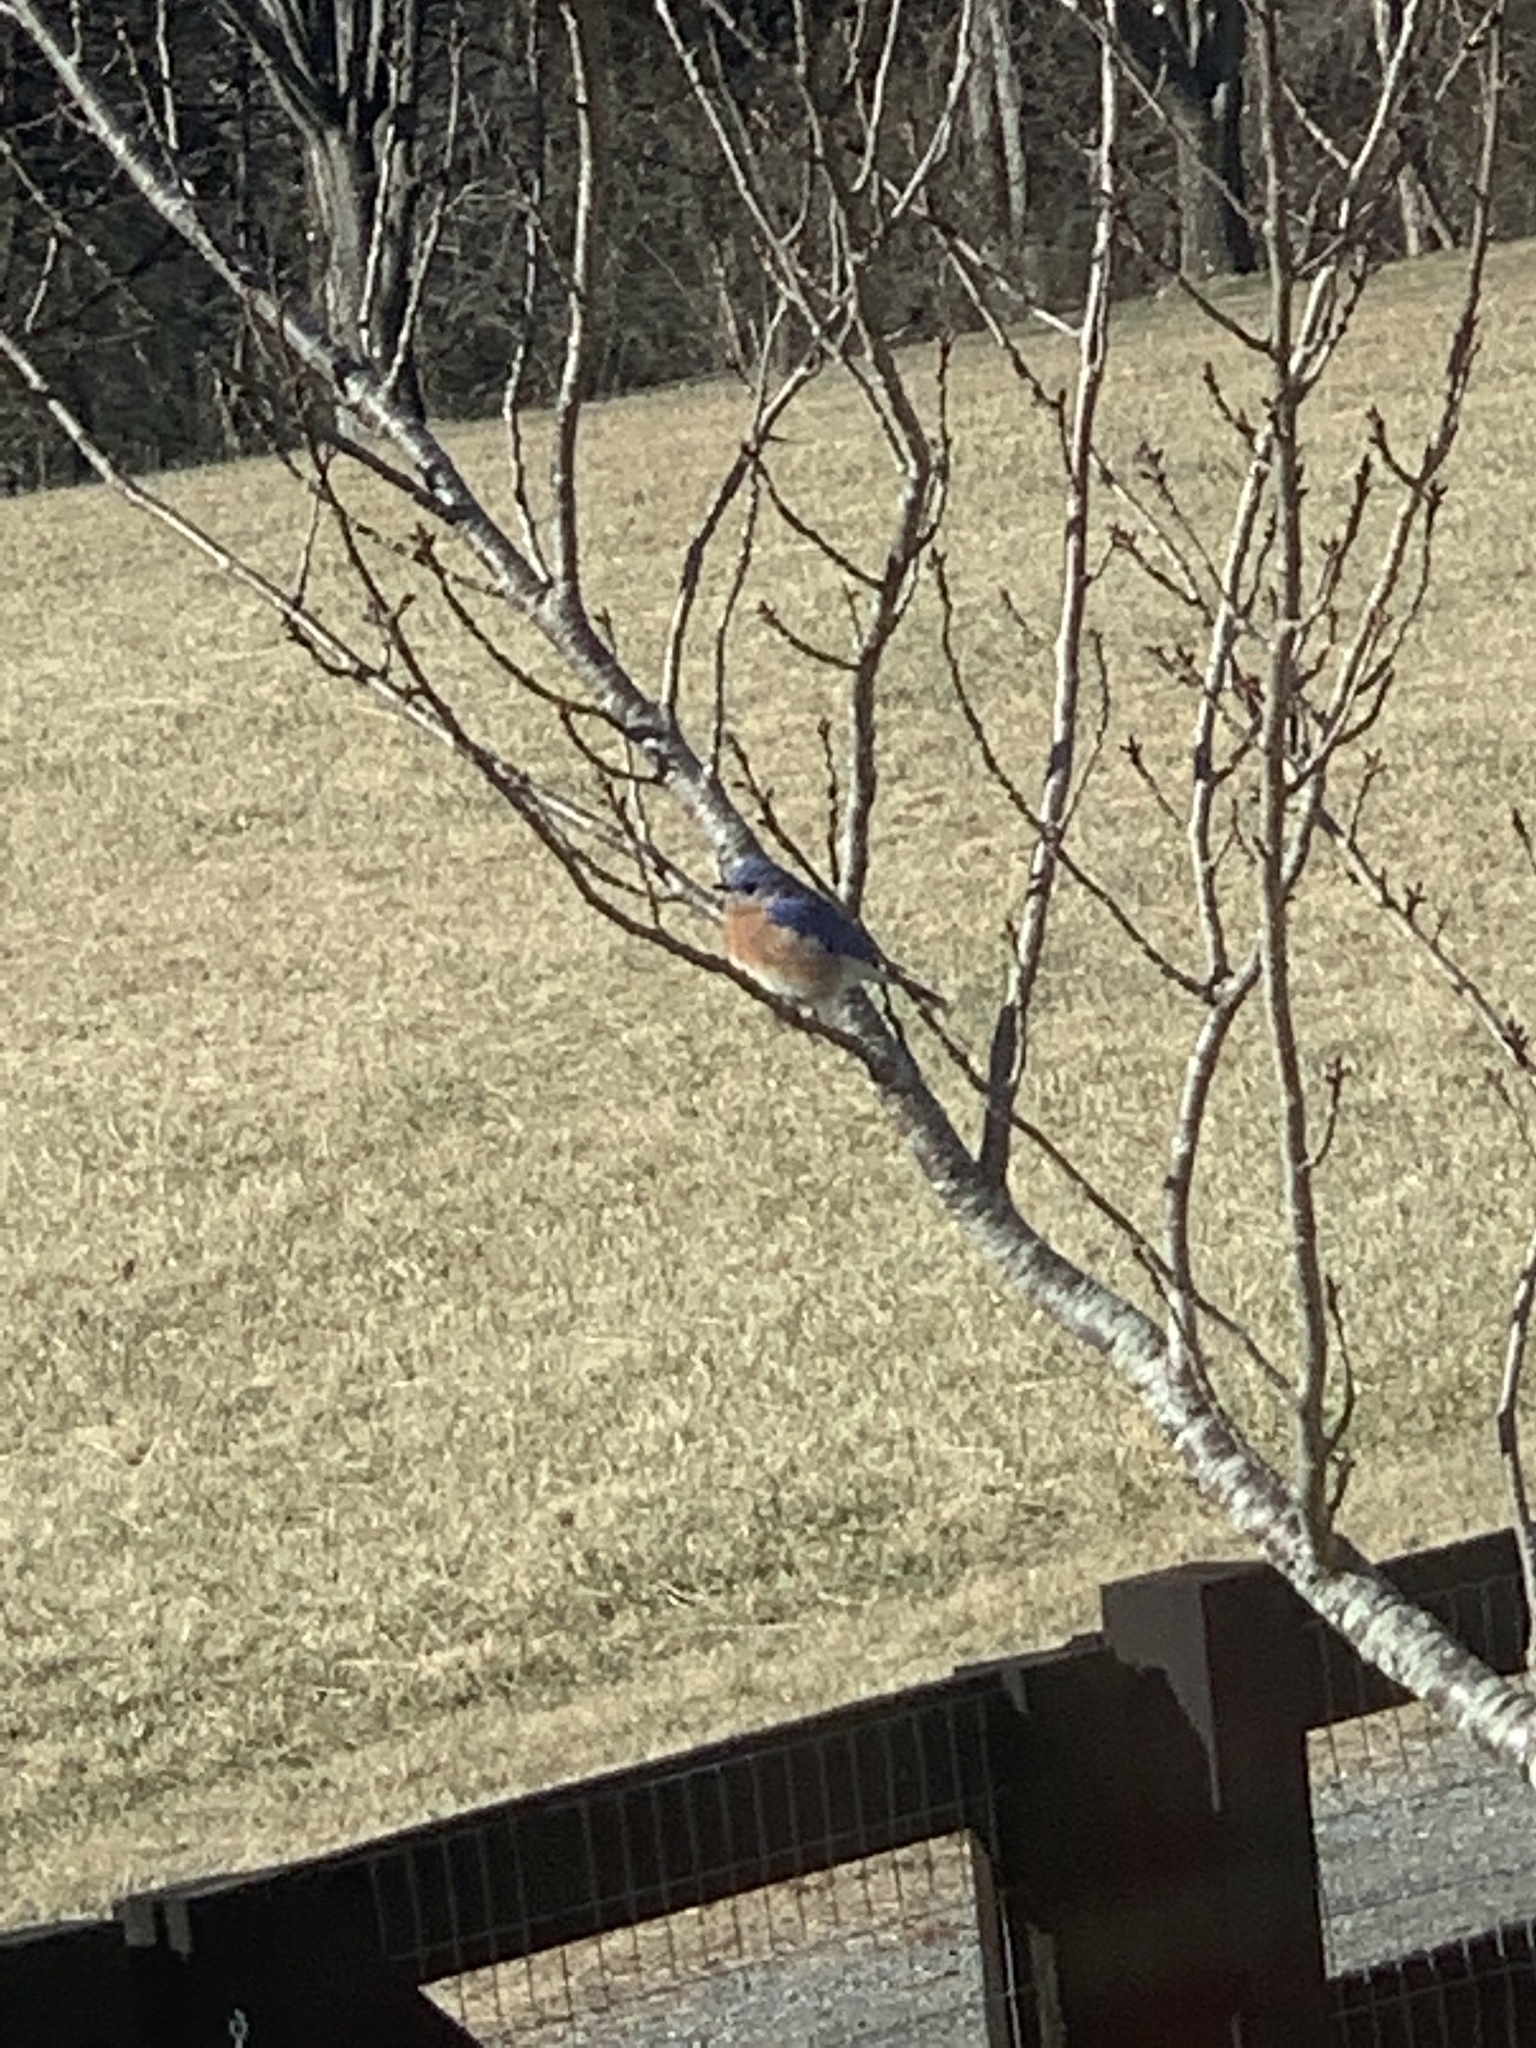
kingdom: Animalia
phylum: Chordata
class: Aves
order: Passeriformes
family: Turdidae
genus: Sialia
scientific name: Sialia sialis
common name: Eastern bluebird
